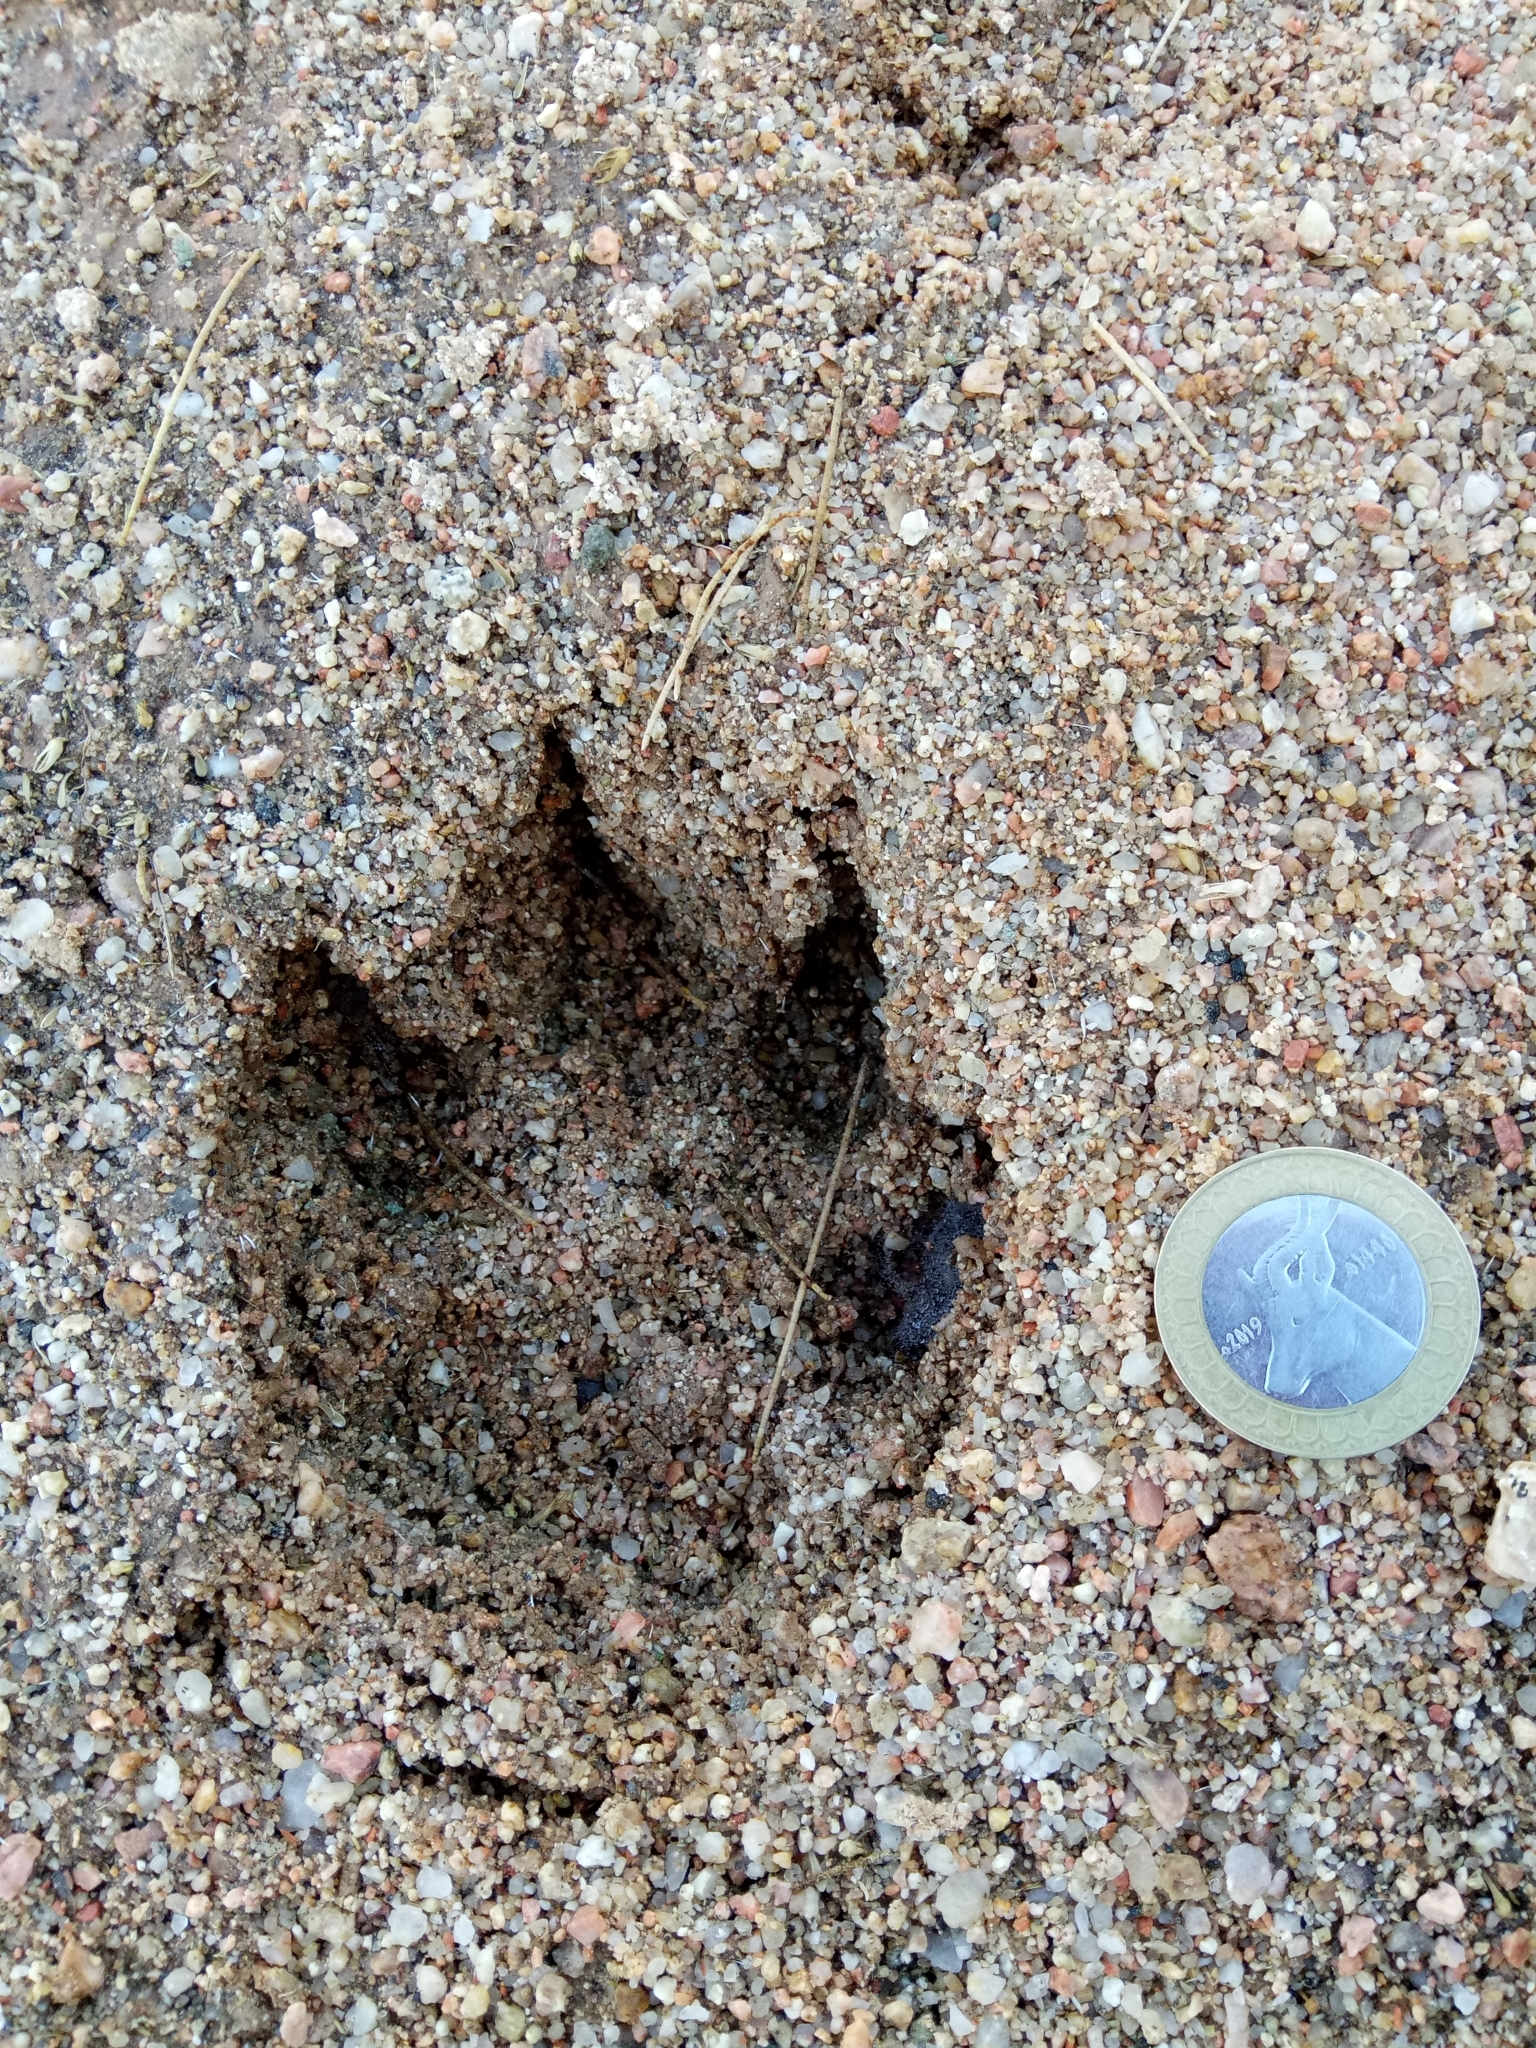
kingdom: Animalia
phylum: Chordata
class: Mammalia
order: Carnivora
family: Canidae
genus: Canis
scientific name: Canis lupus
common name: Gray wolf
